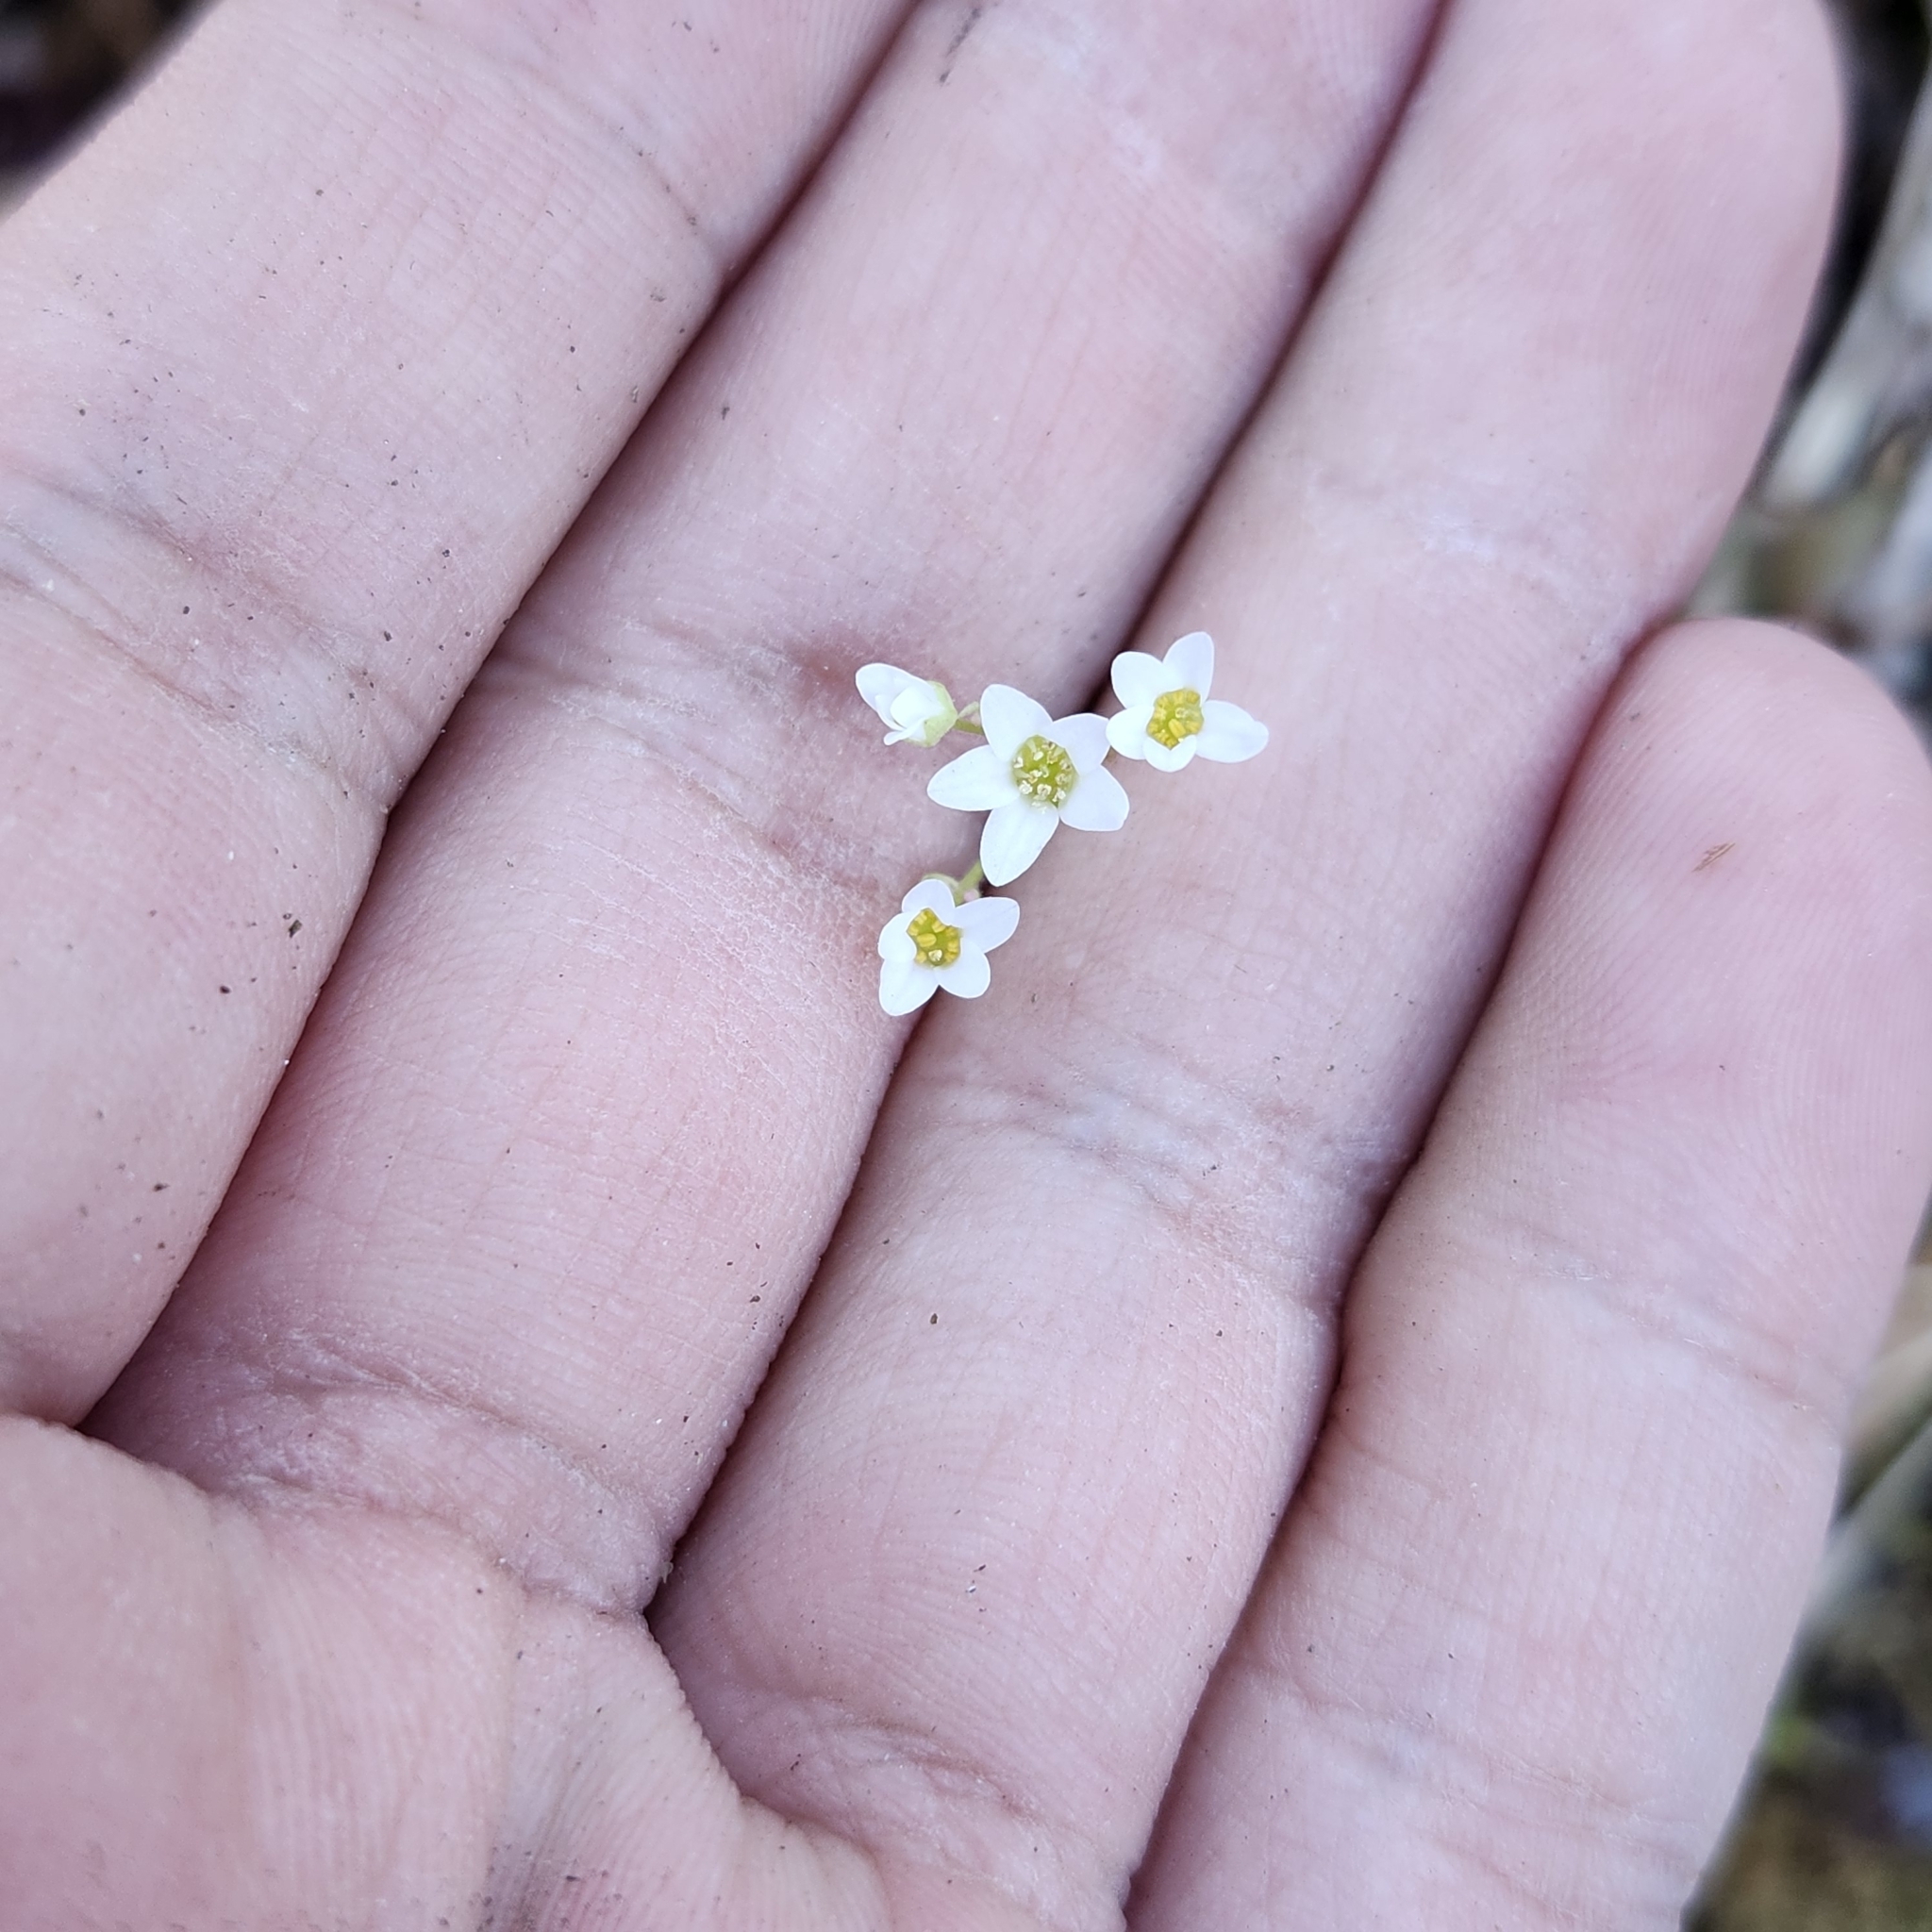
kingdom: Plantae
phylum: Tracheophyta
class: Magnoliopsida
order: Saxifragales
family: Saxifragaceae
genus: Micranthes
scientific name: Micranthes virginiensis
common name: Early saxifrage
